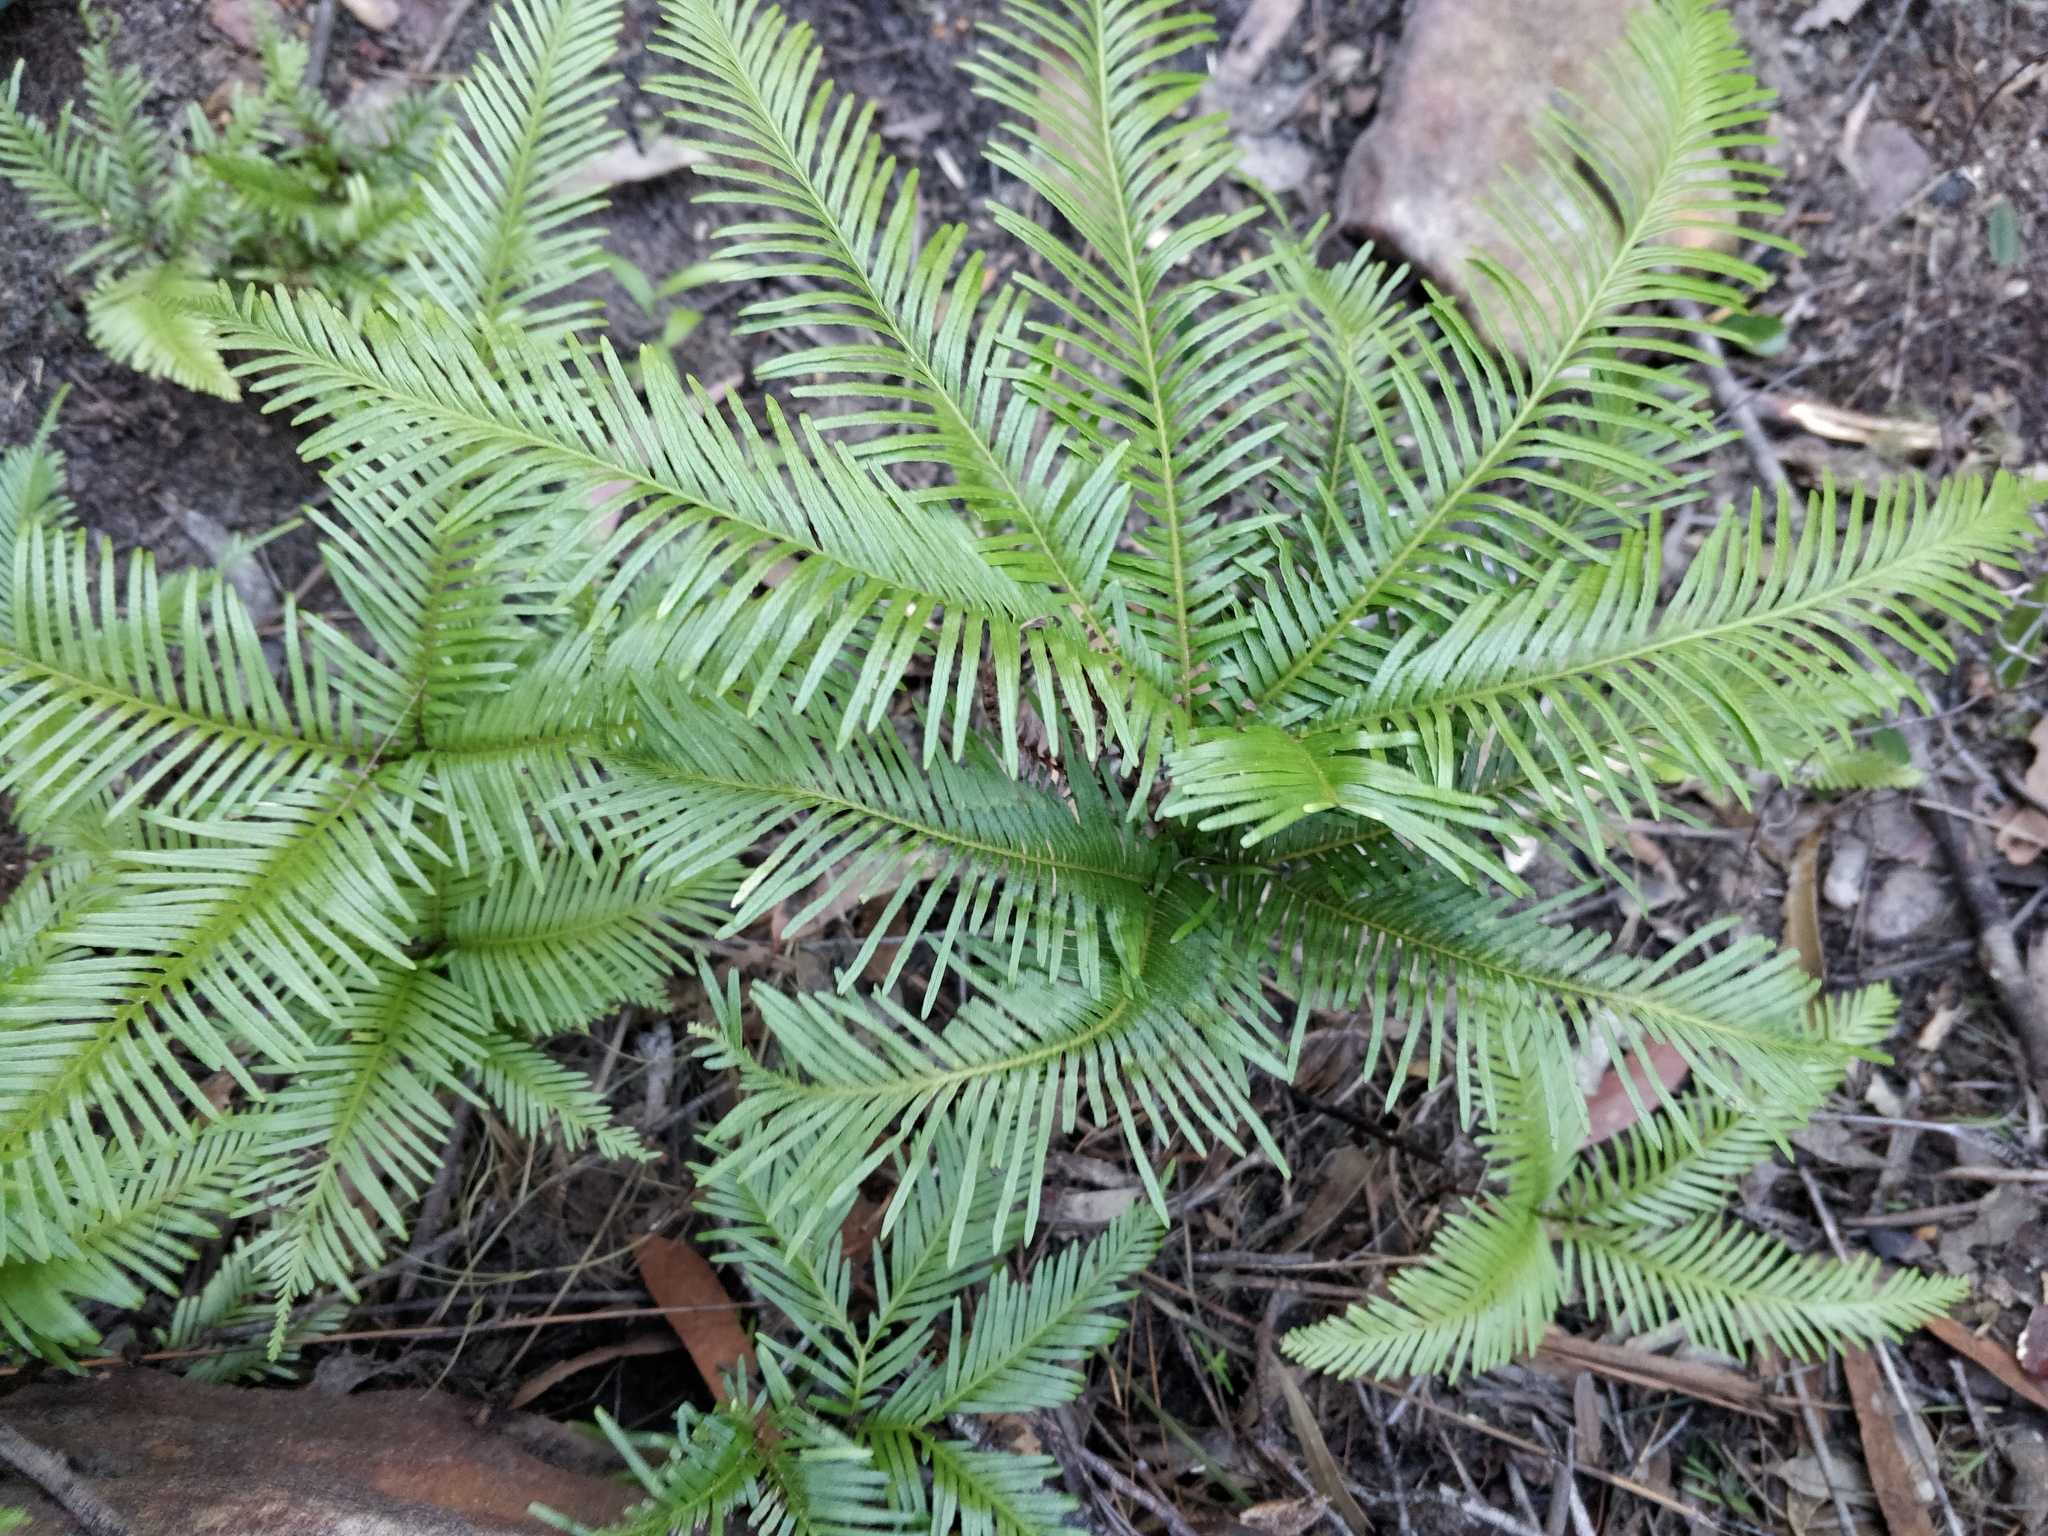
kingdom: Plantae
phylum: Tracheophyta
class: Polypodiopsida
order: Gleicheniales
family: Gleicheniaceae
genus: Sticherus
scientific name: Sticherus flabellatus
